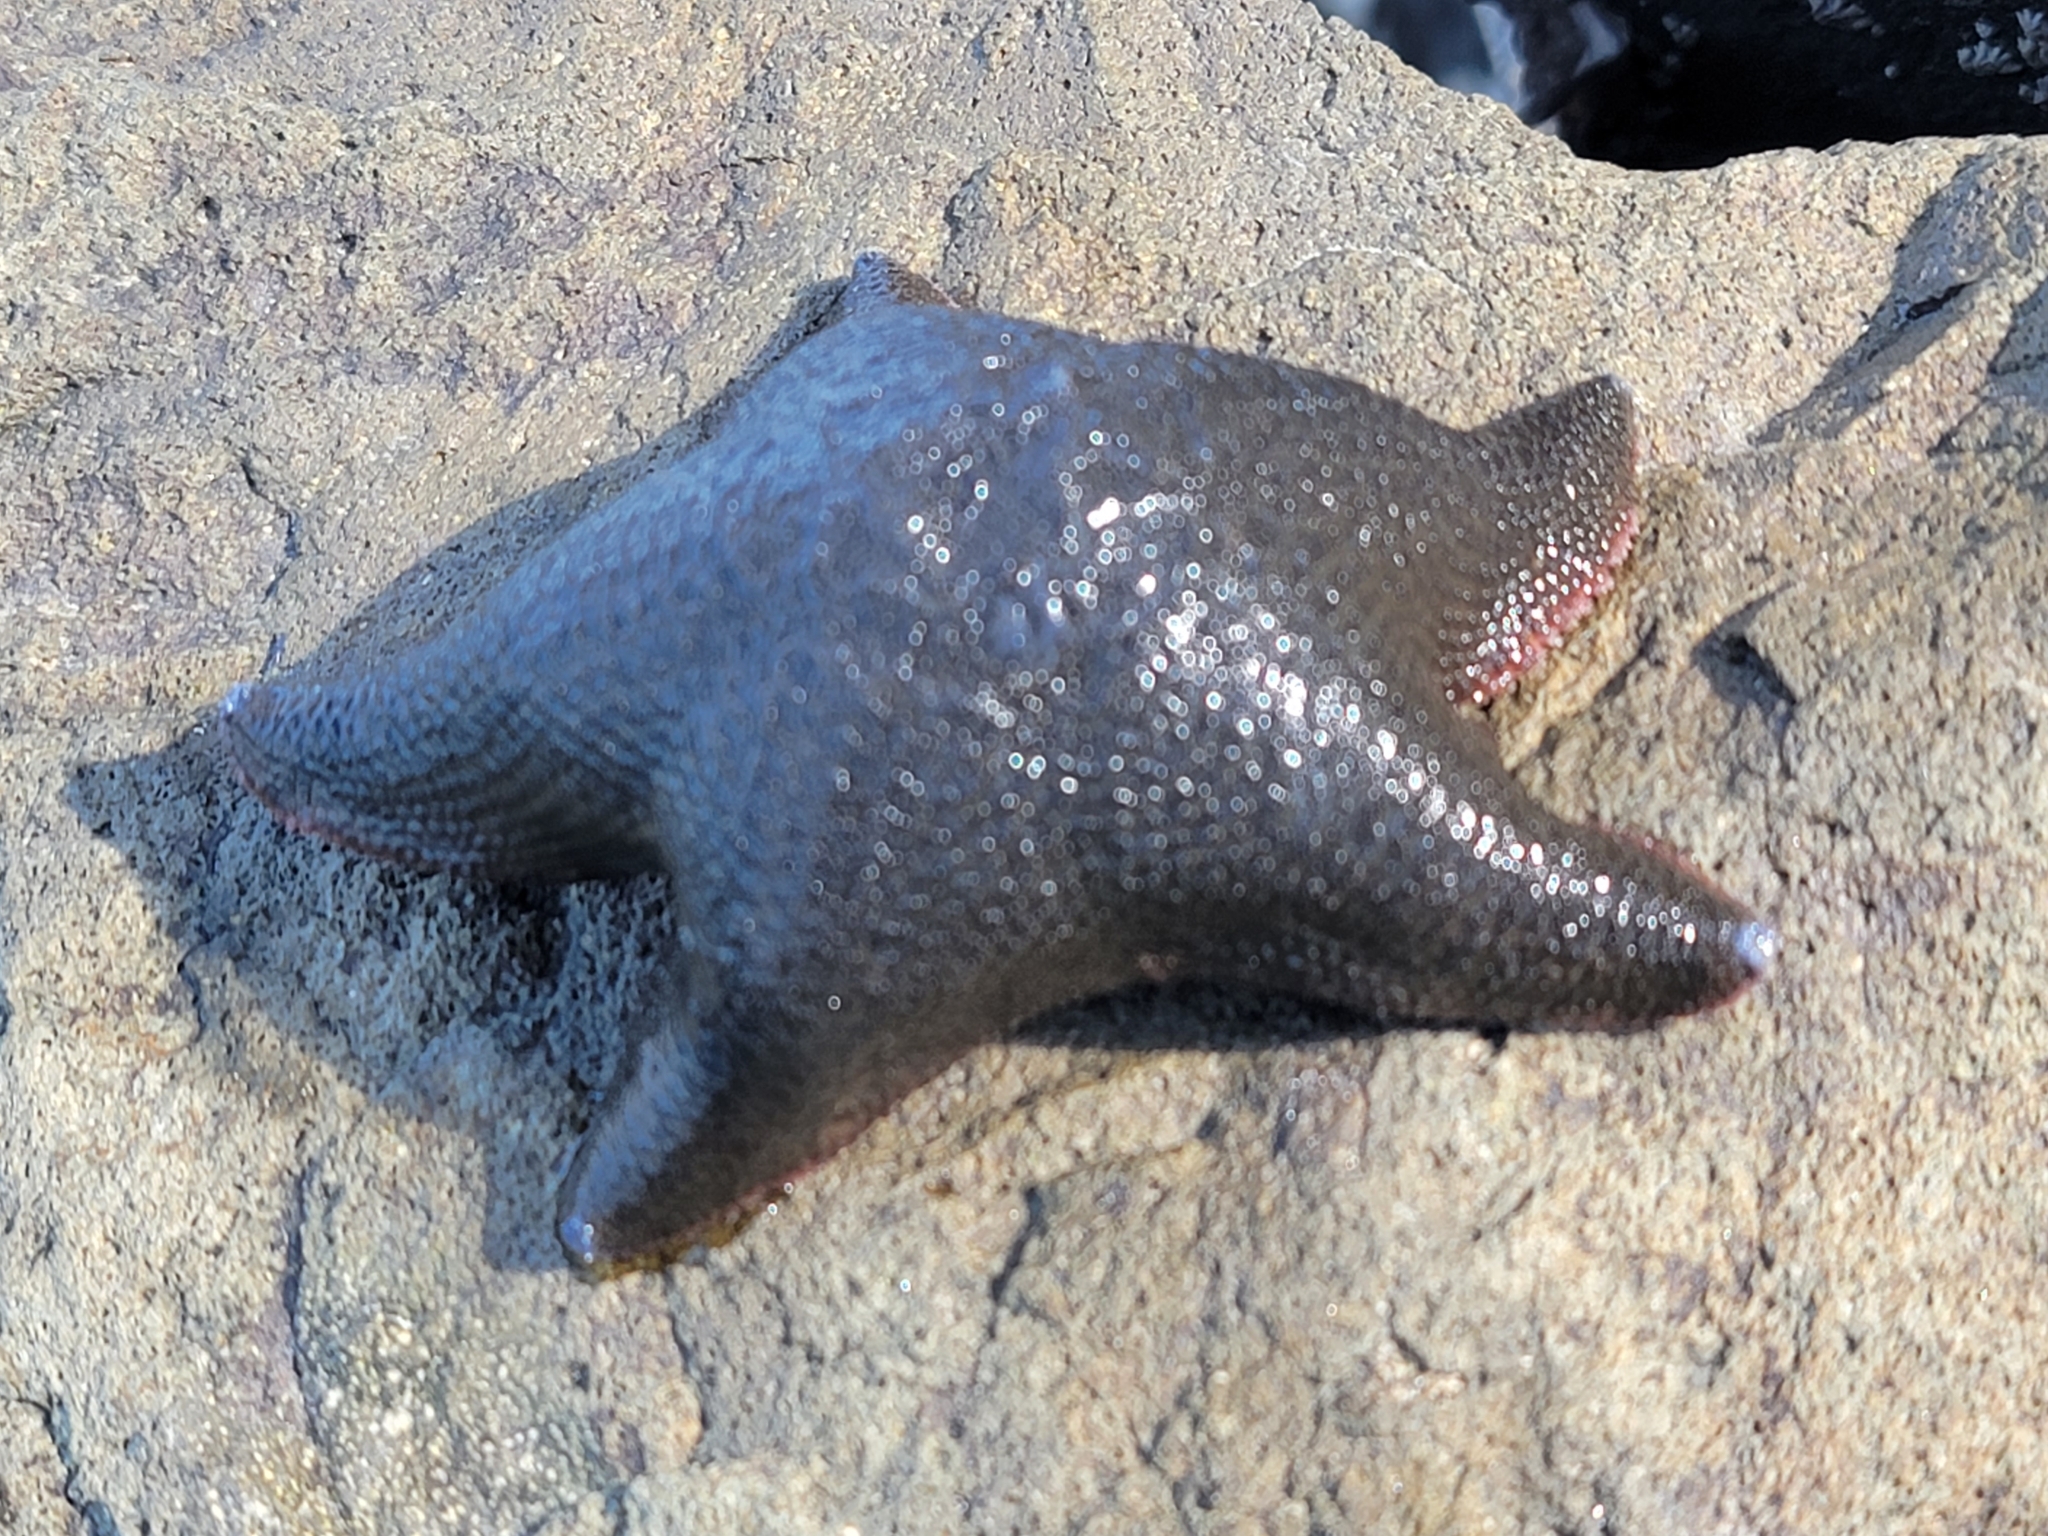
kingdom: Animalia
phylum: Echinodermata
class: Asteroidea
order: Valvatida
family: Asterinidae
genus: Patiriella
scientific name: Patiriella regularis
